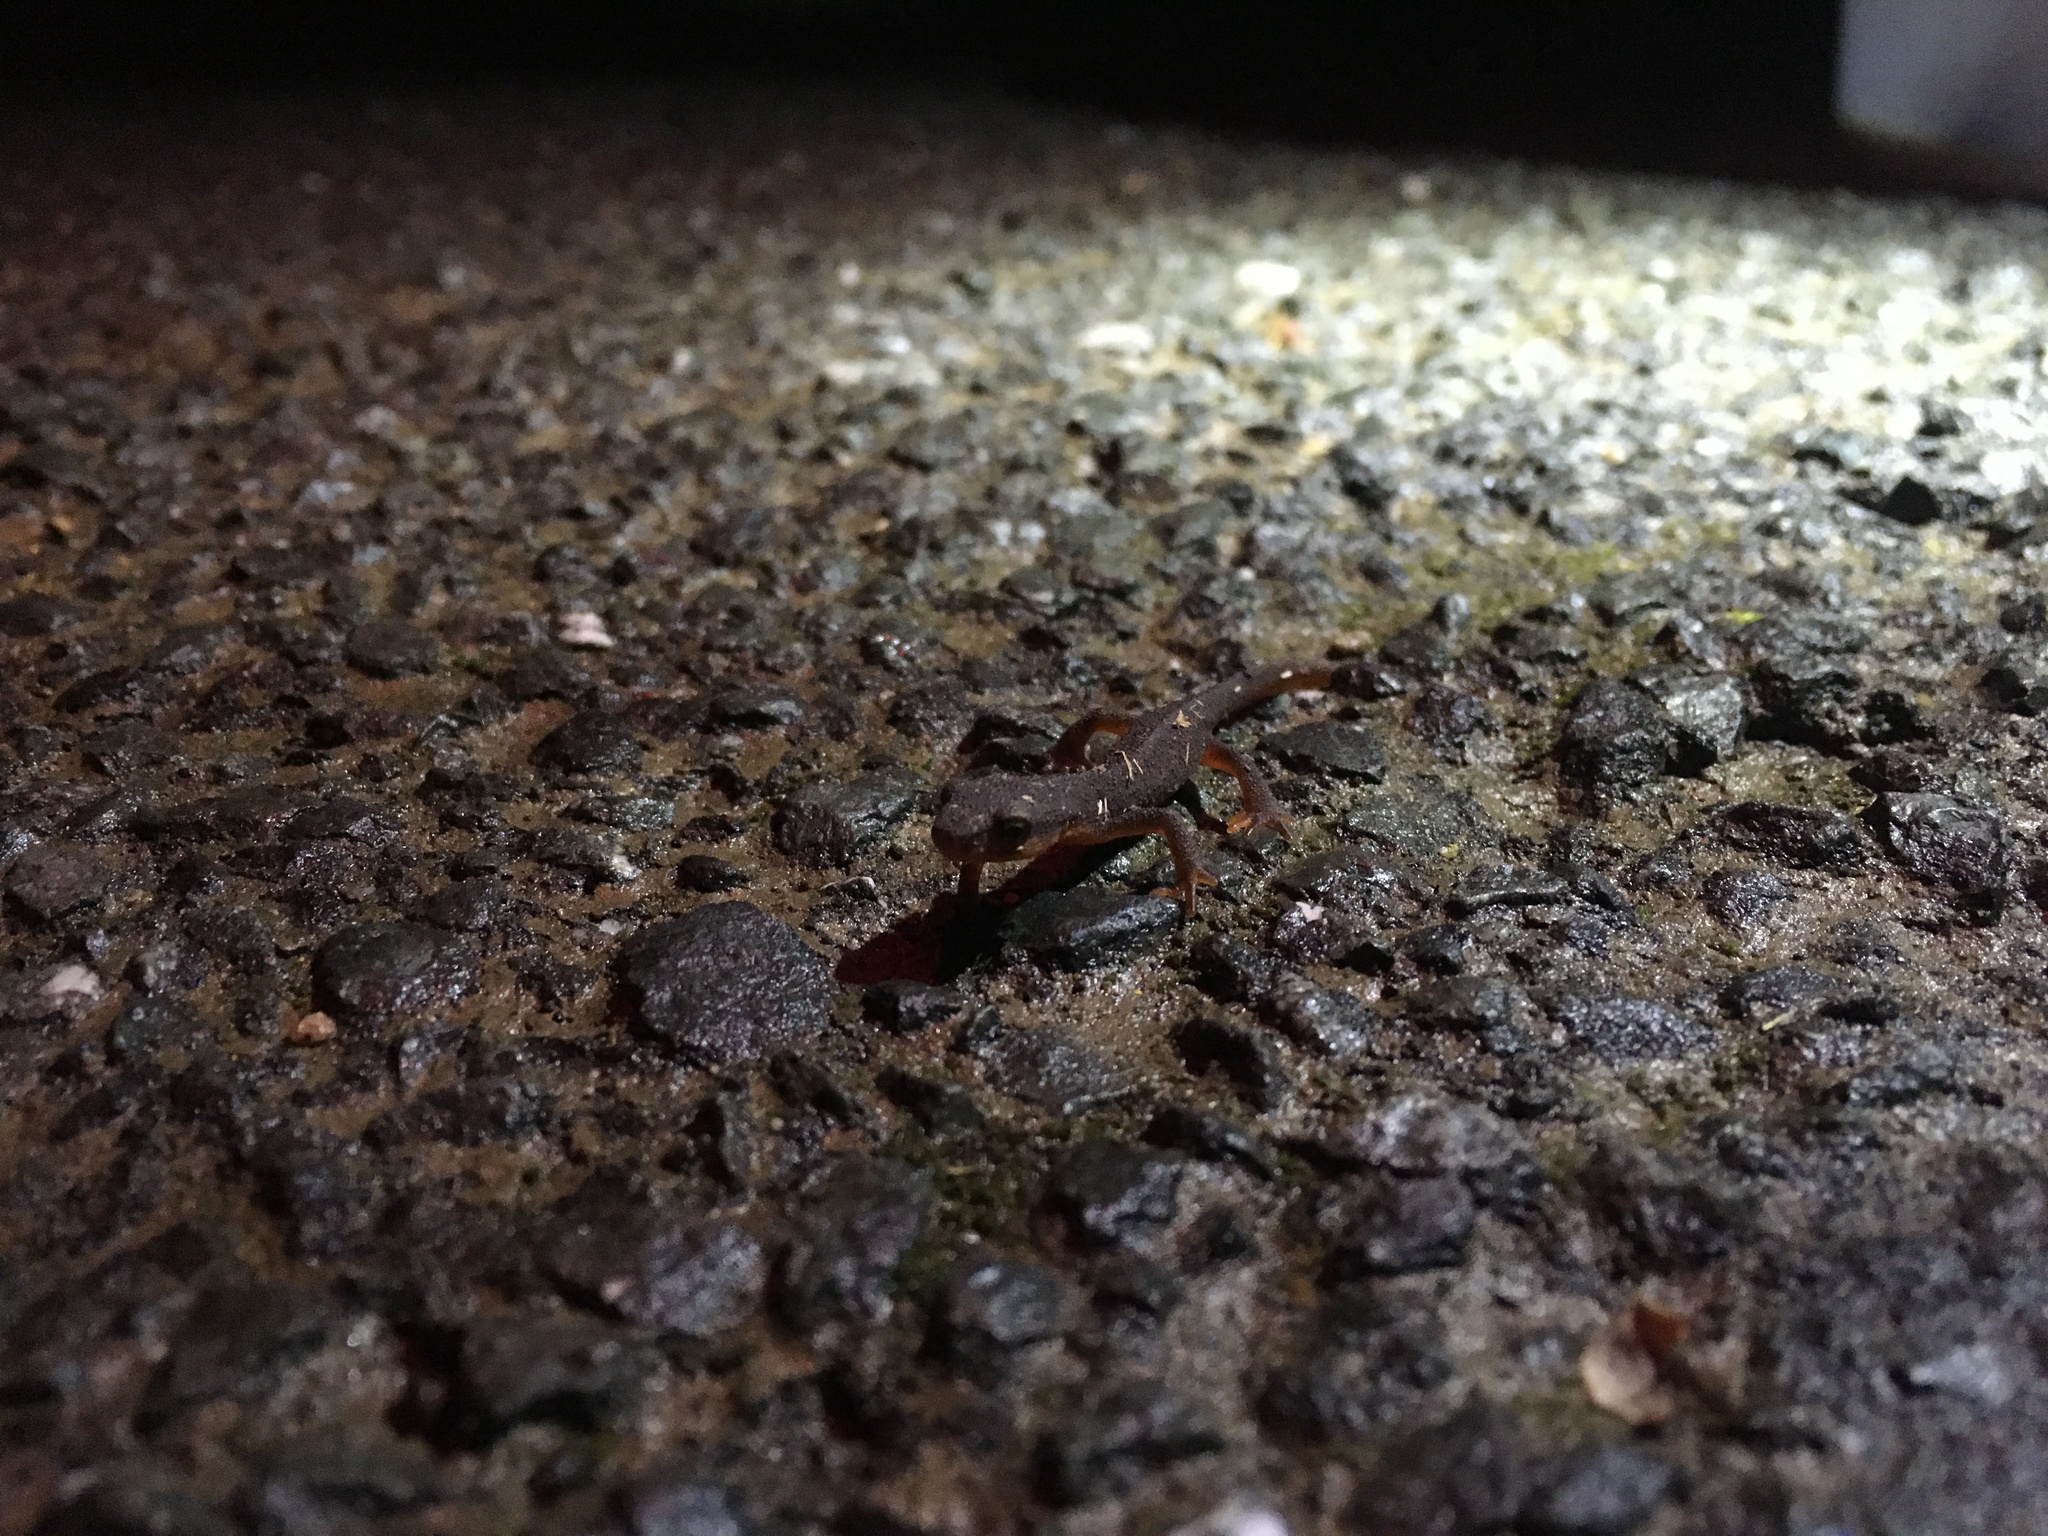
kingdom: Animalia
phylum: Chordata
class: Amphibia
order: Caudata
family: Salamandridae
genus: Taricha
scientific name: Taricha torosa
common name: California newt
